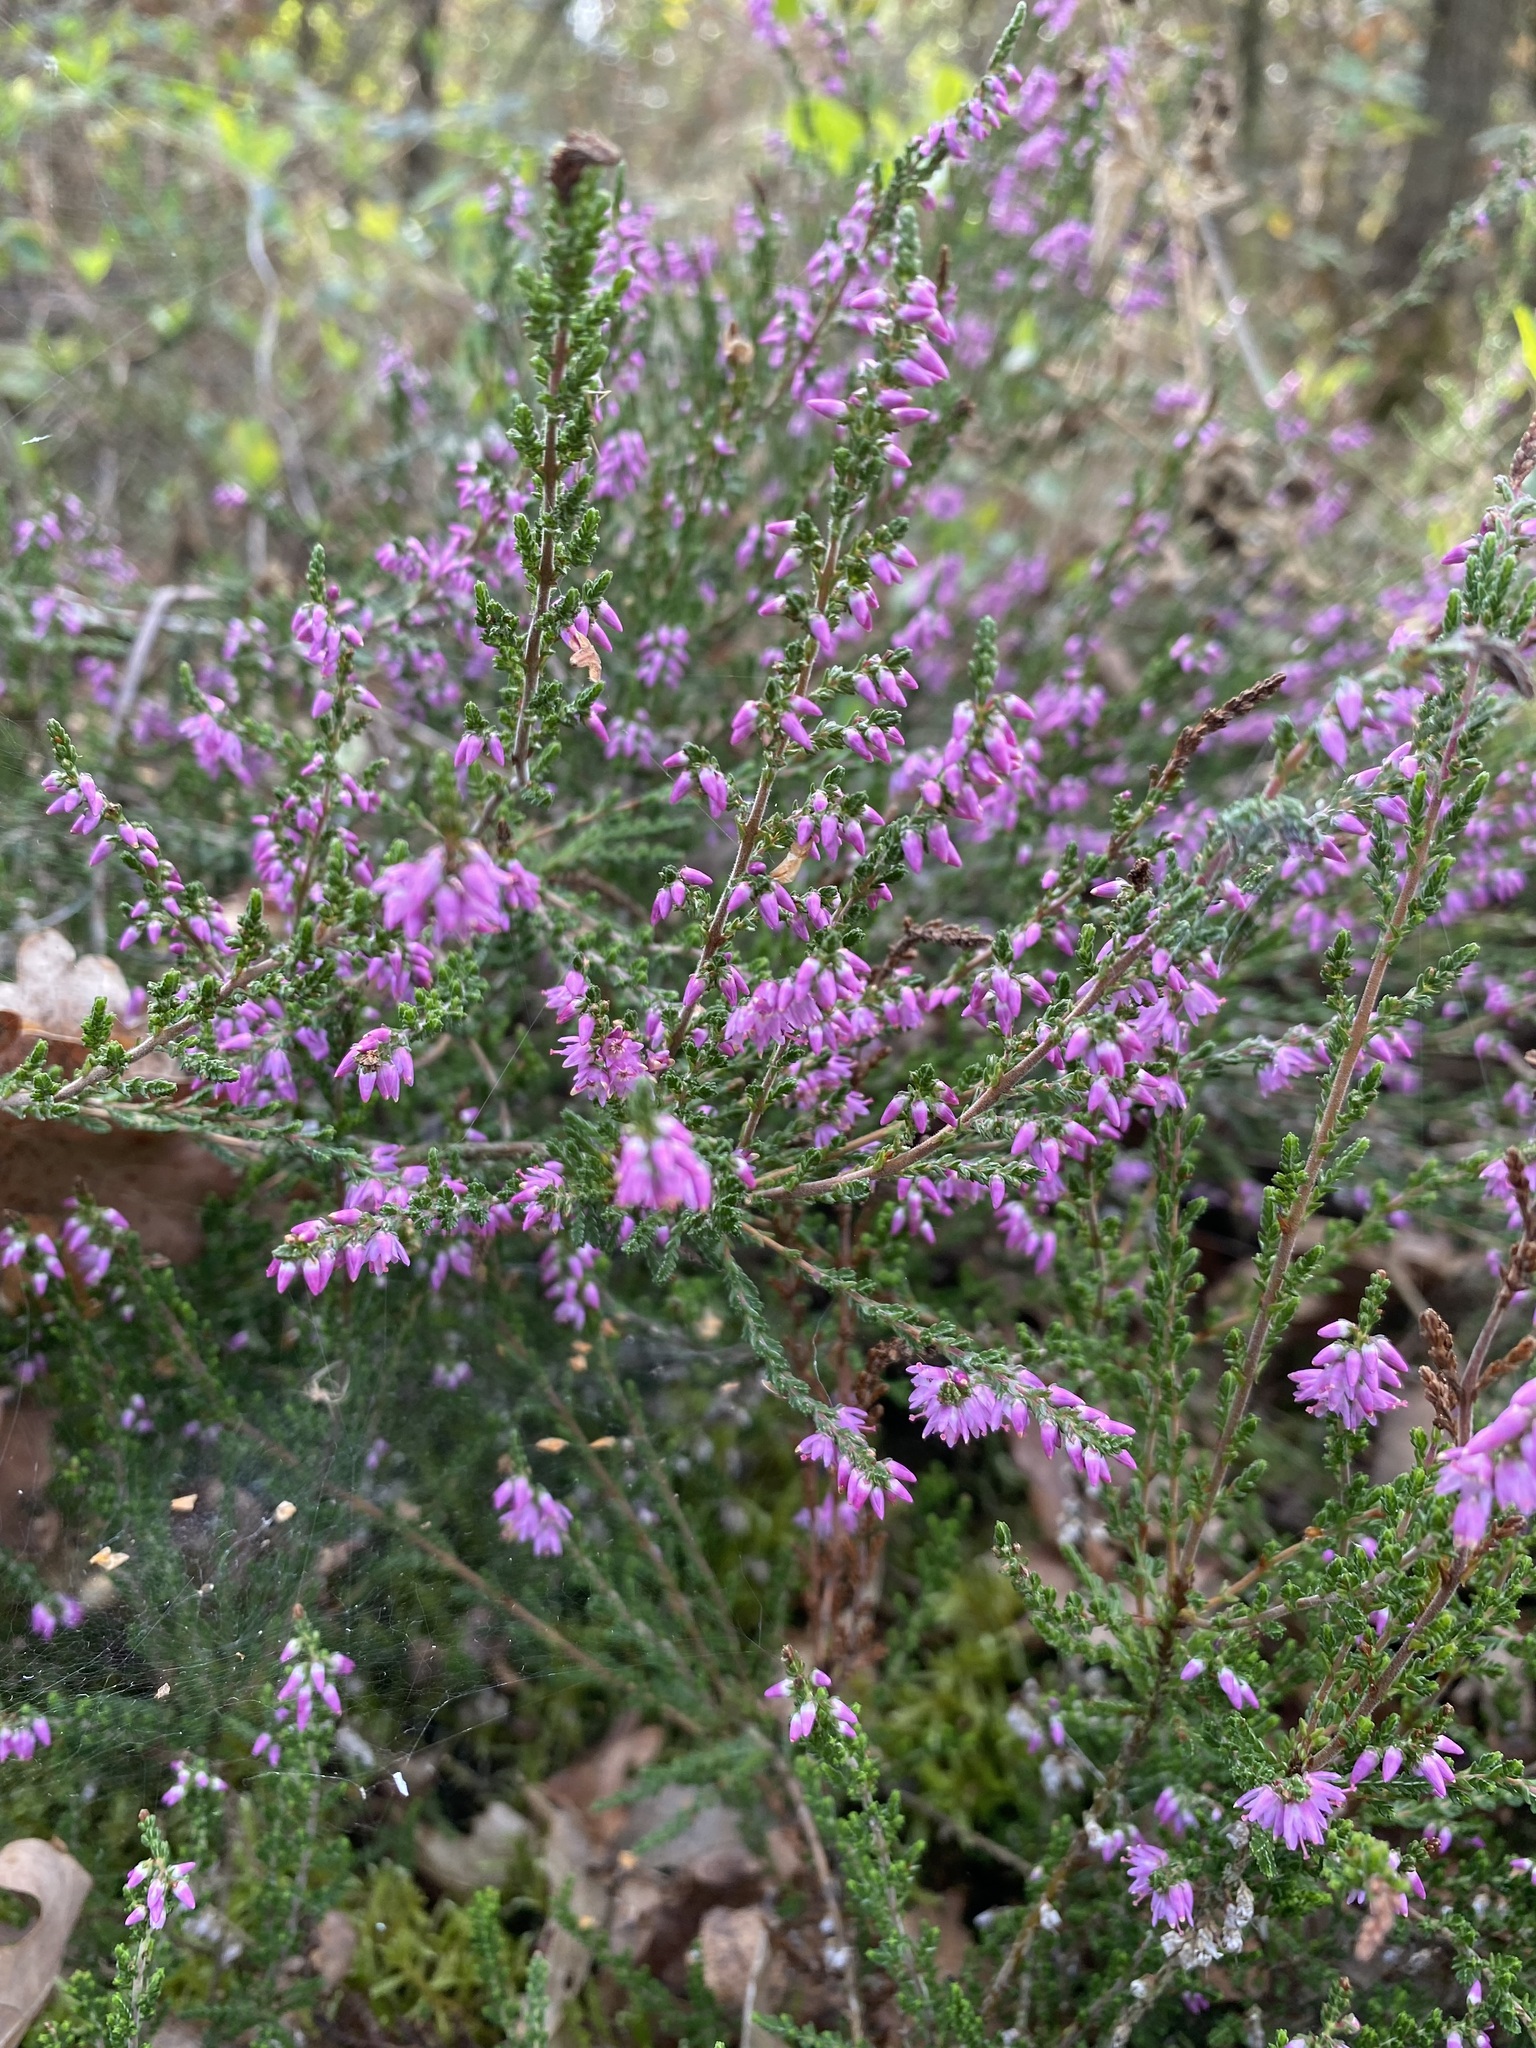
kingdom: Plantae
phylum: Tracheophyta
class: Magnoliopsida
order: Ericales
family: Ericaceae
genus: Calluna
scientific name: Calluna vulgaris
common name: Heather
